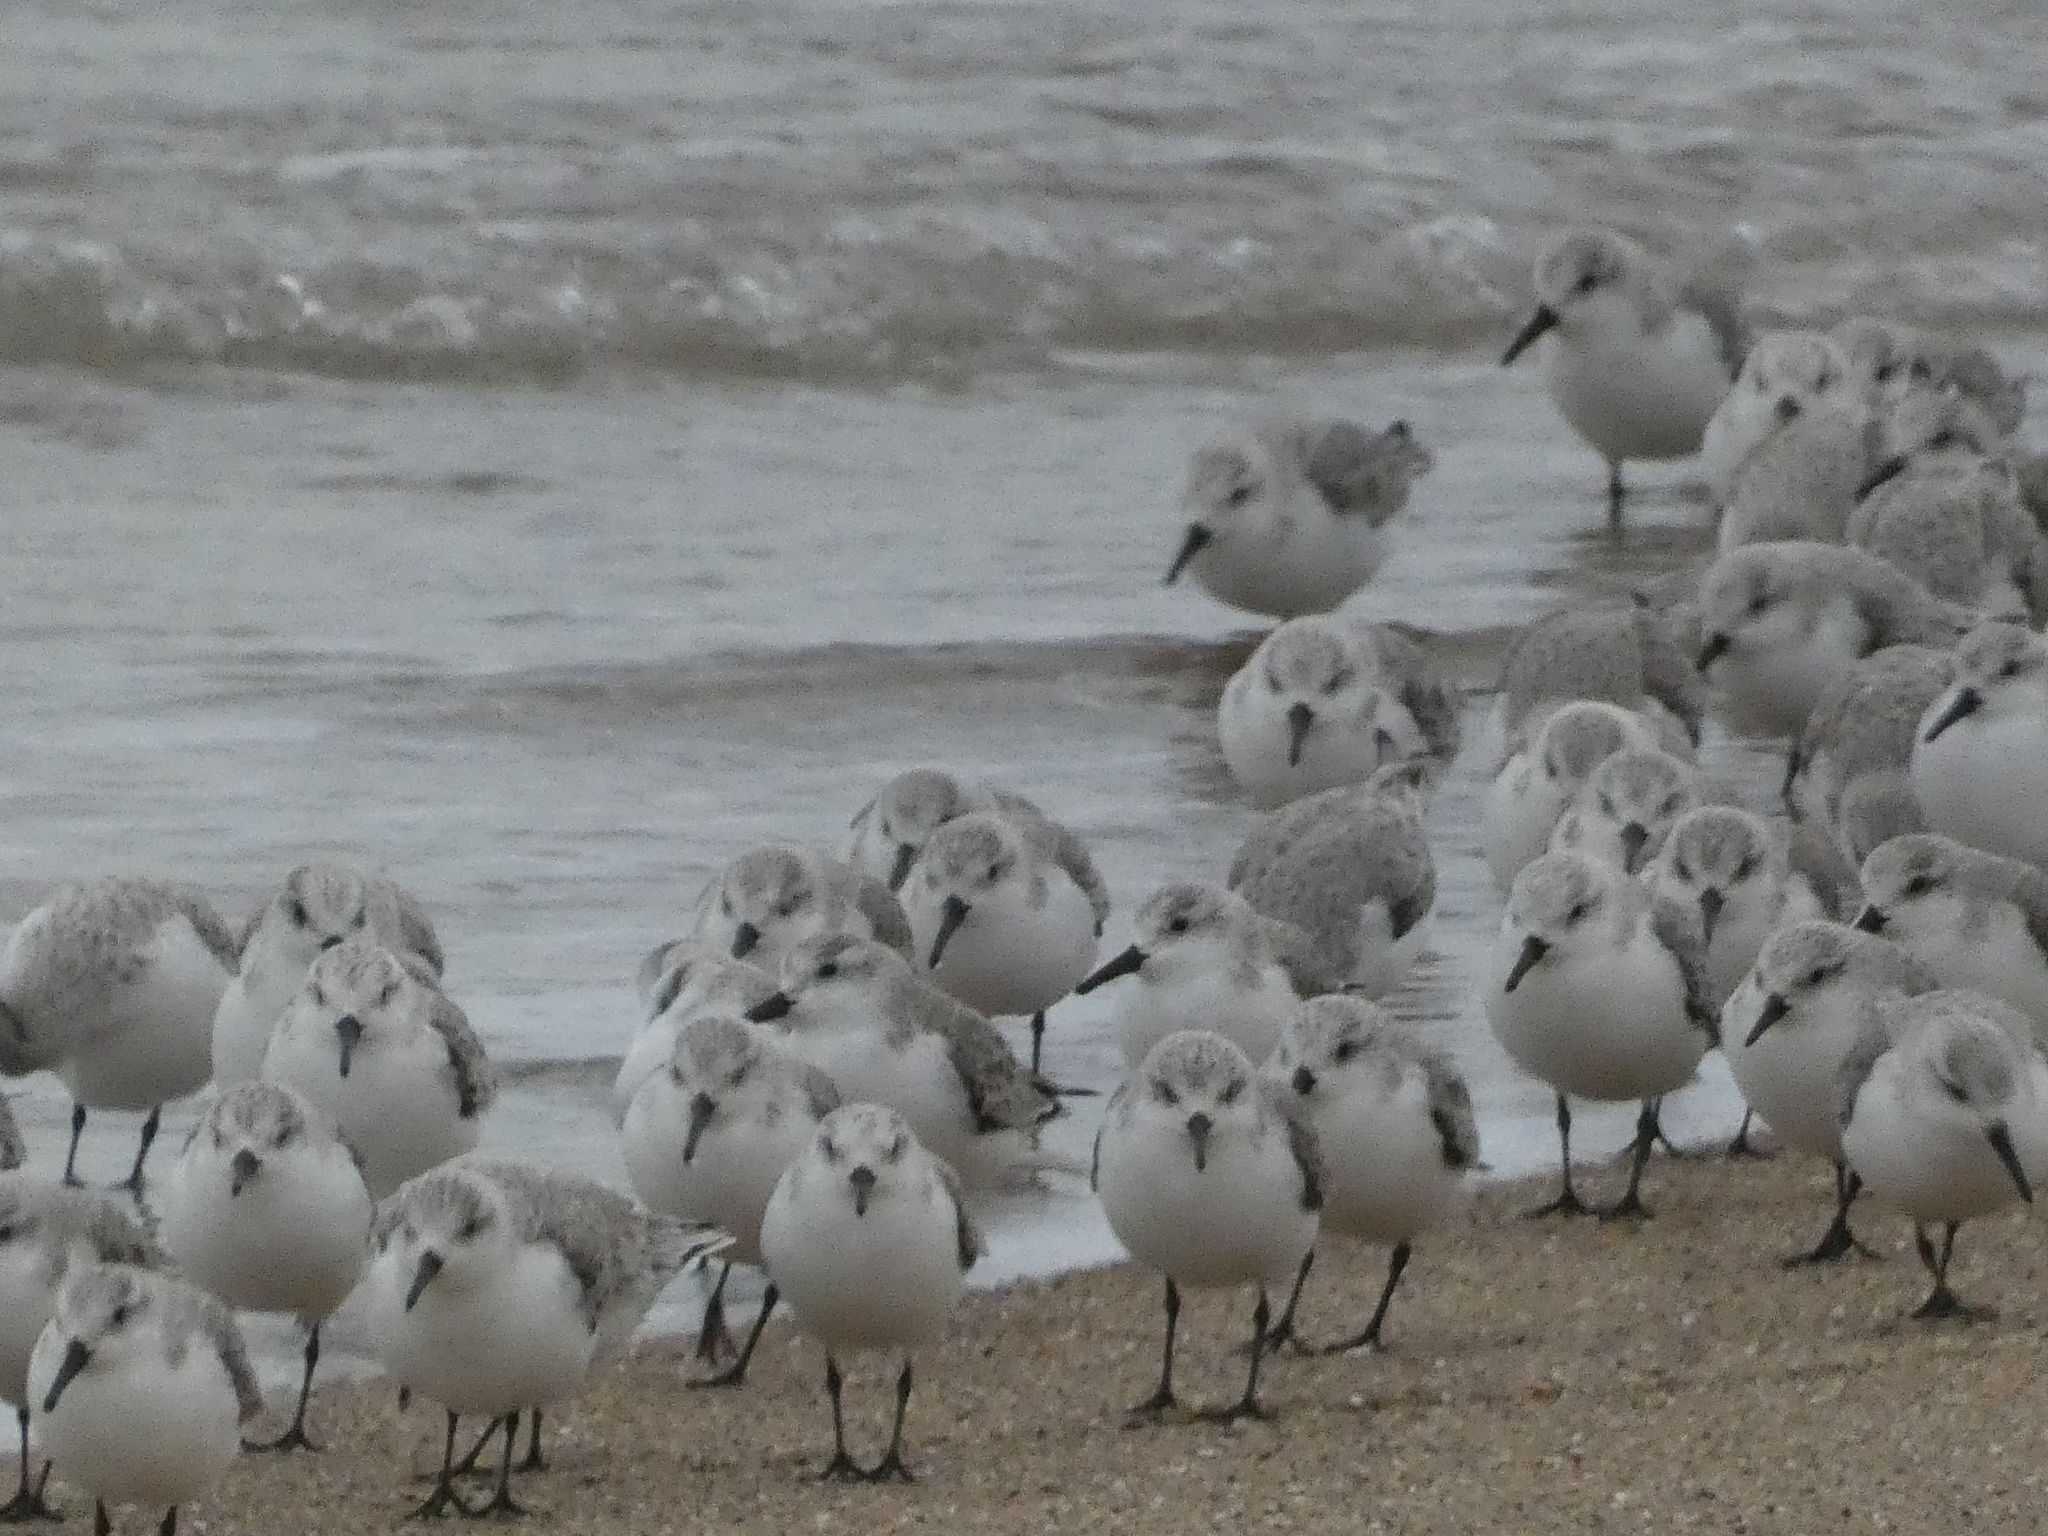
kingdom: Animalia
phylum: Chordata
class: Aves
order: Charadriiformes
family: Scolopacidae
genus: Calidris
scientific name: Calidris alba
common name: Sanderling
